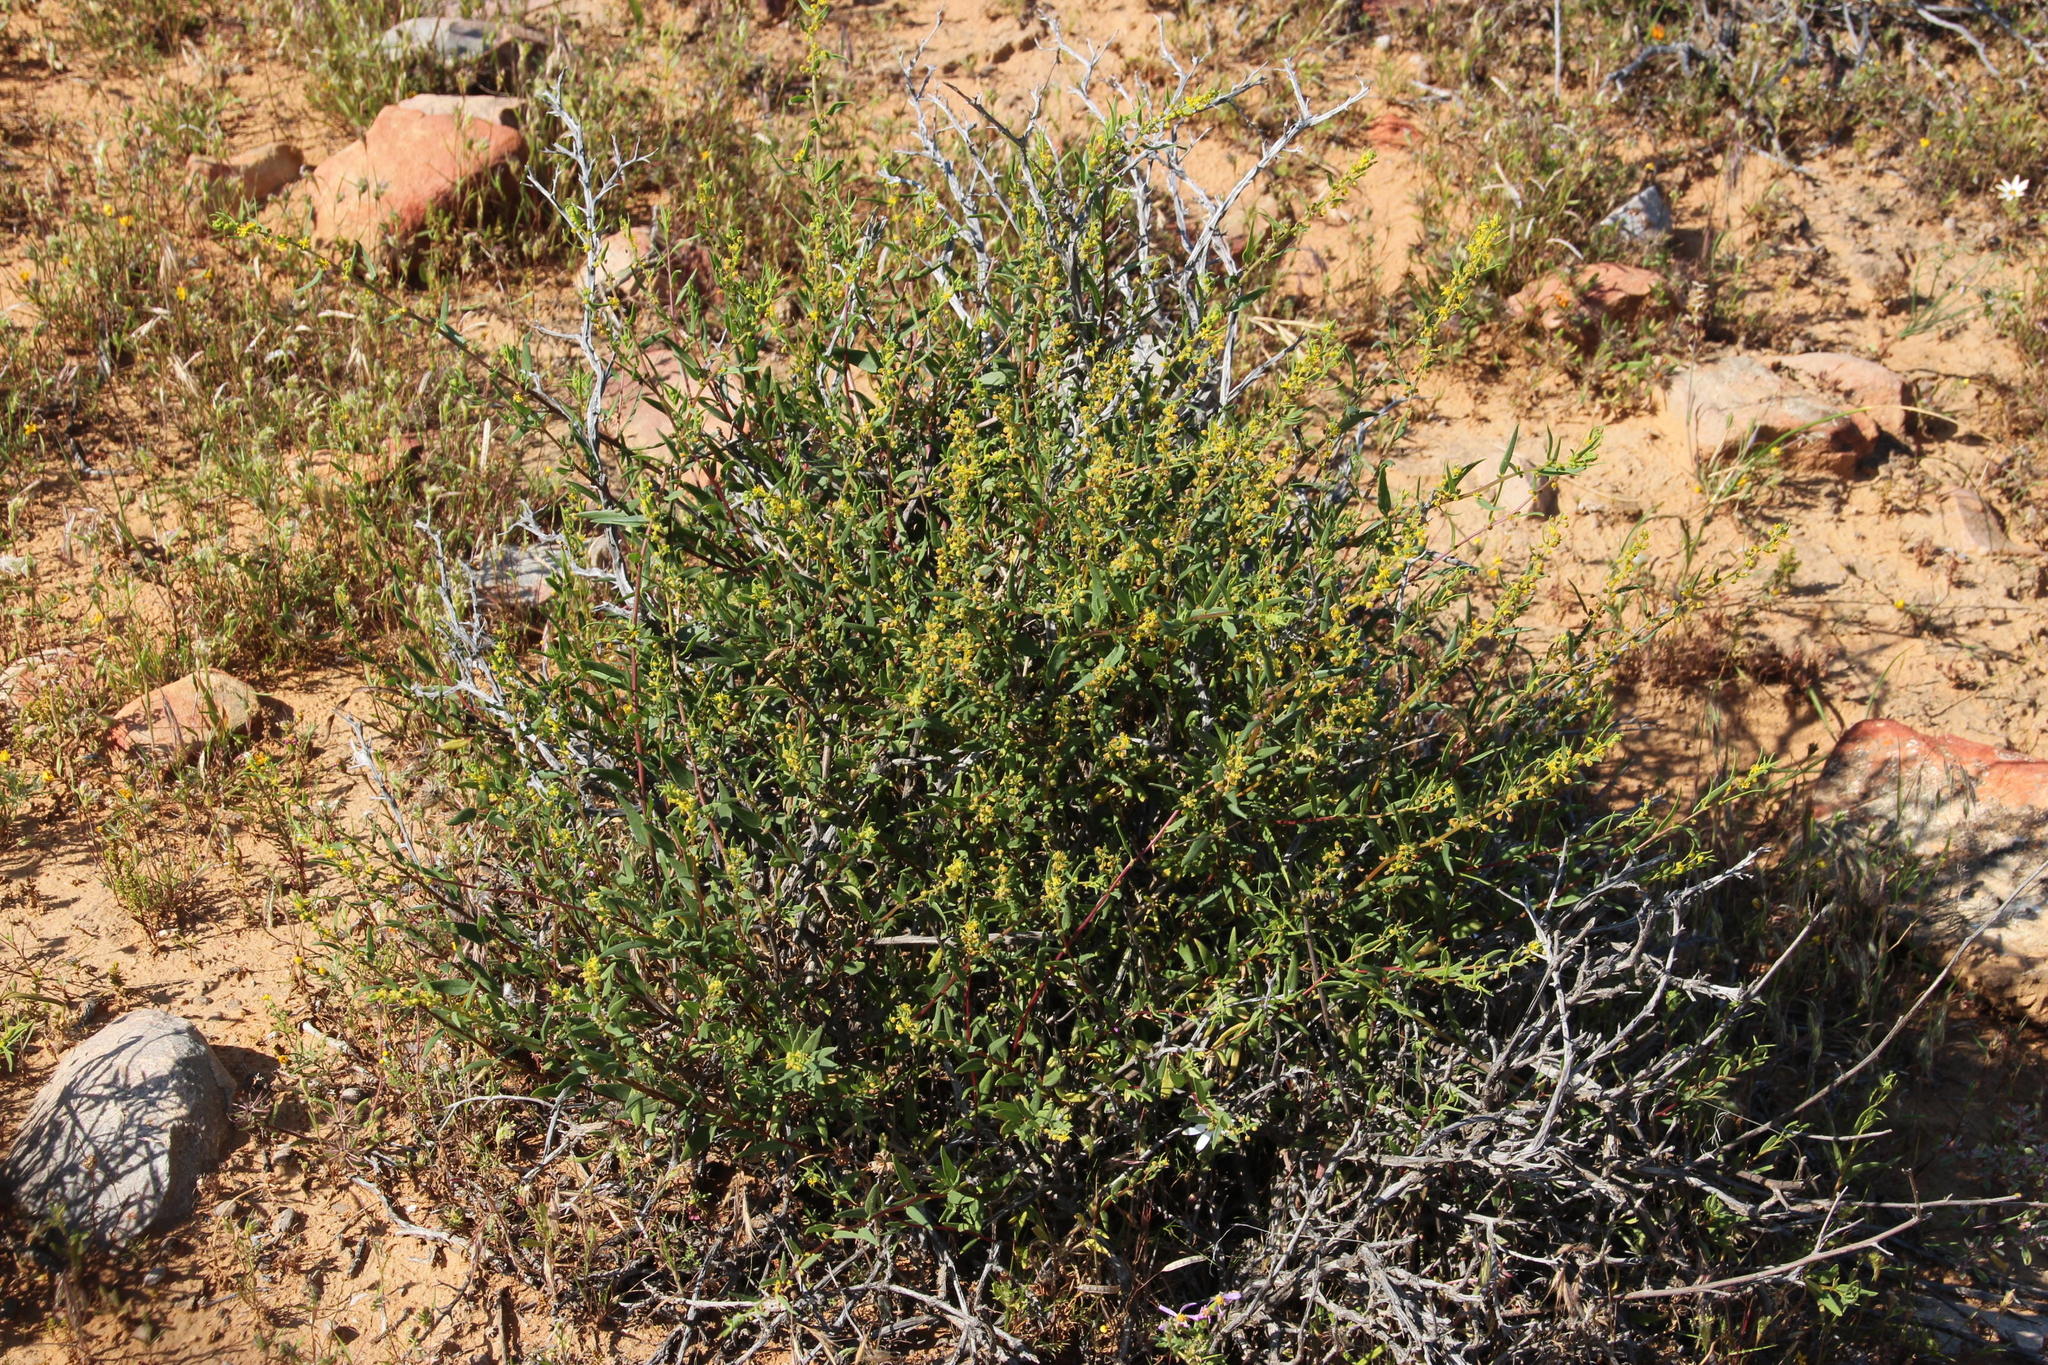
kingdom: Plantae
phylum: Tracheophyta
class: Magnoliopsida
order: Caryophyllales
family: Aizoaceae
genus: Tetragonia
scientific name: Tetragonia fruticosa
